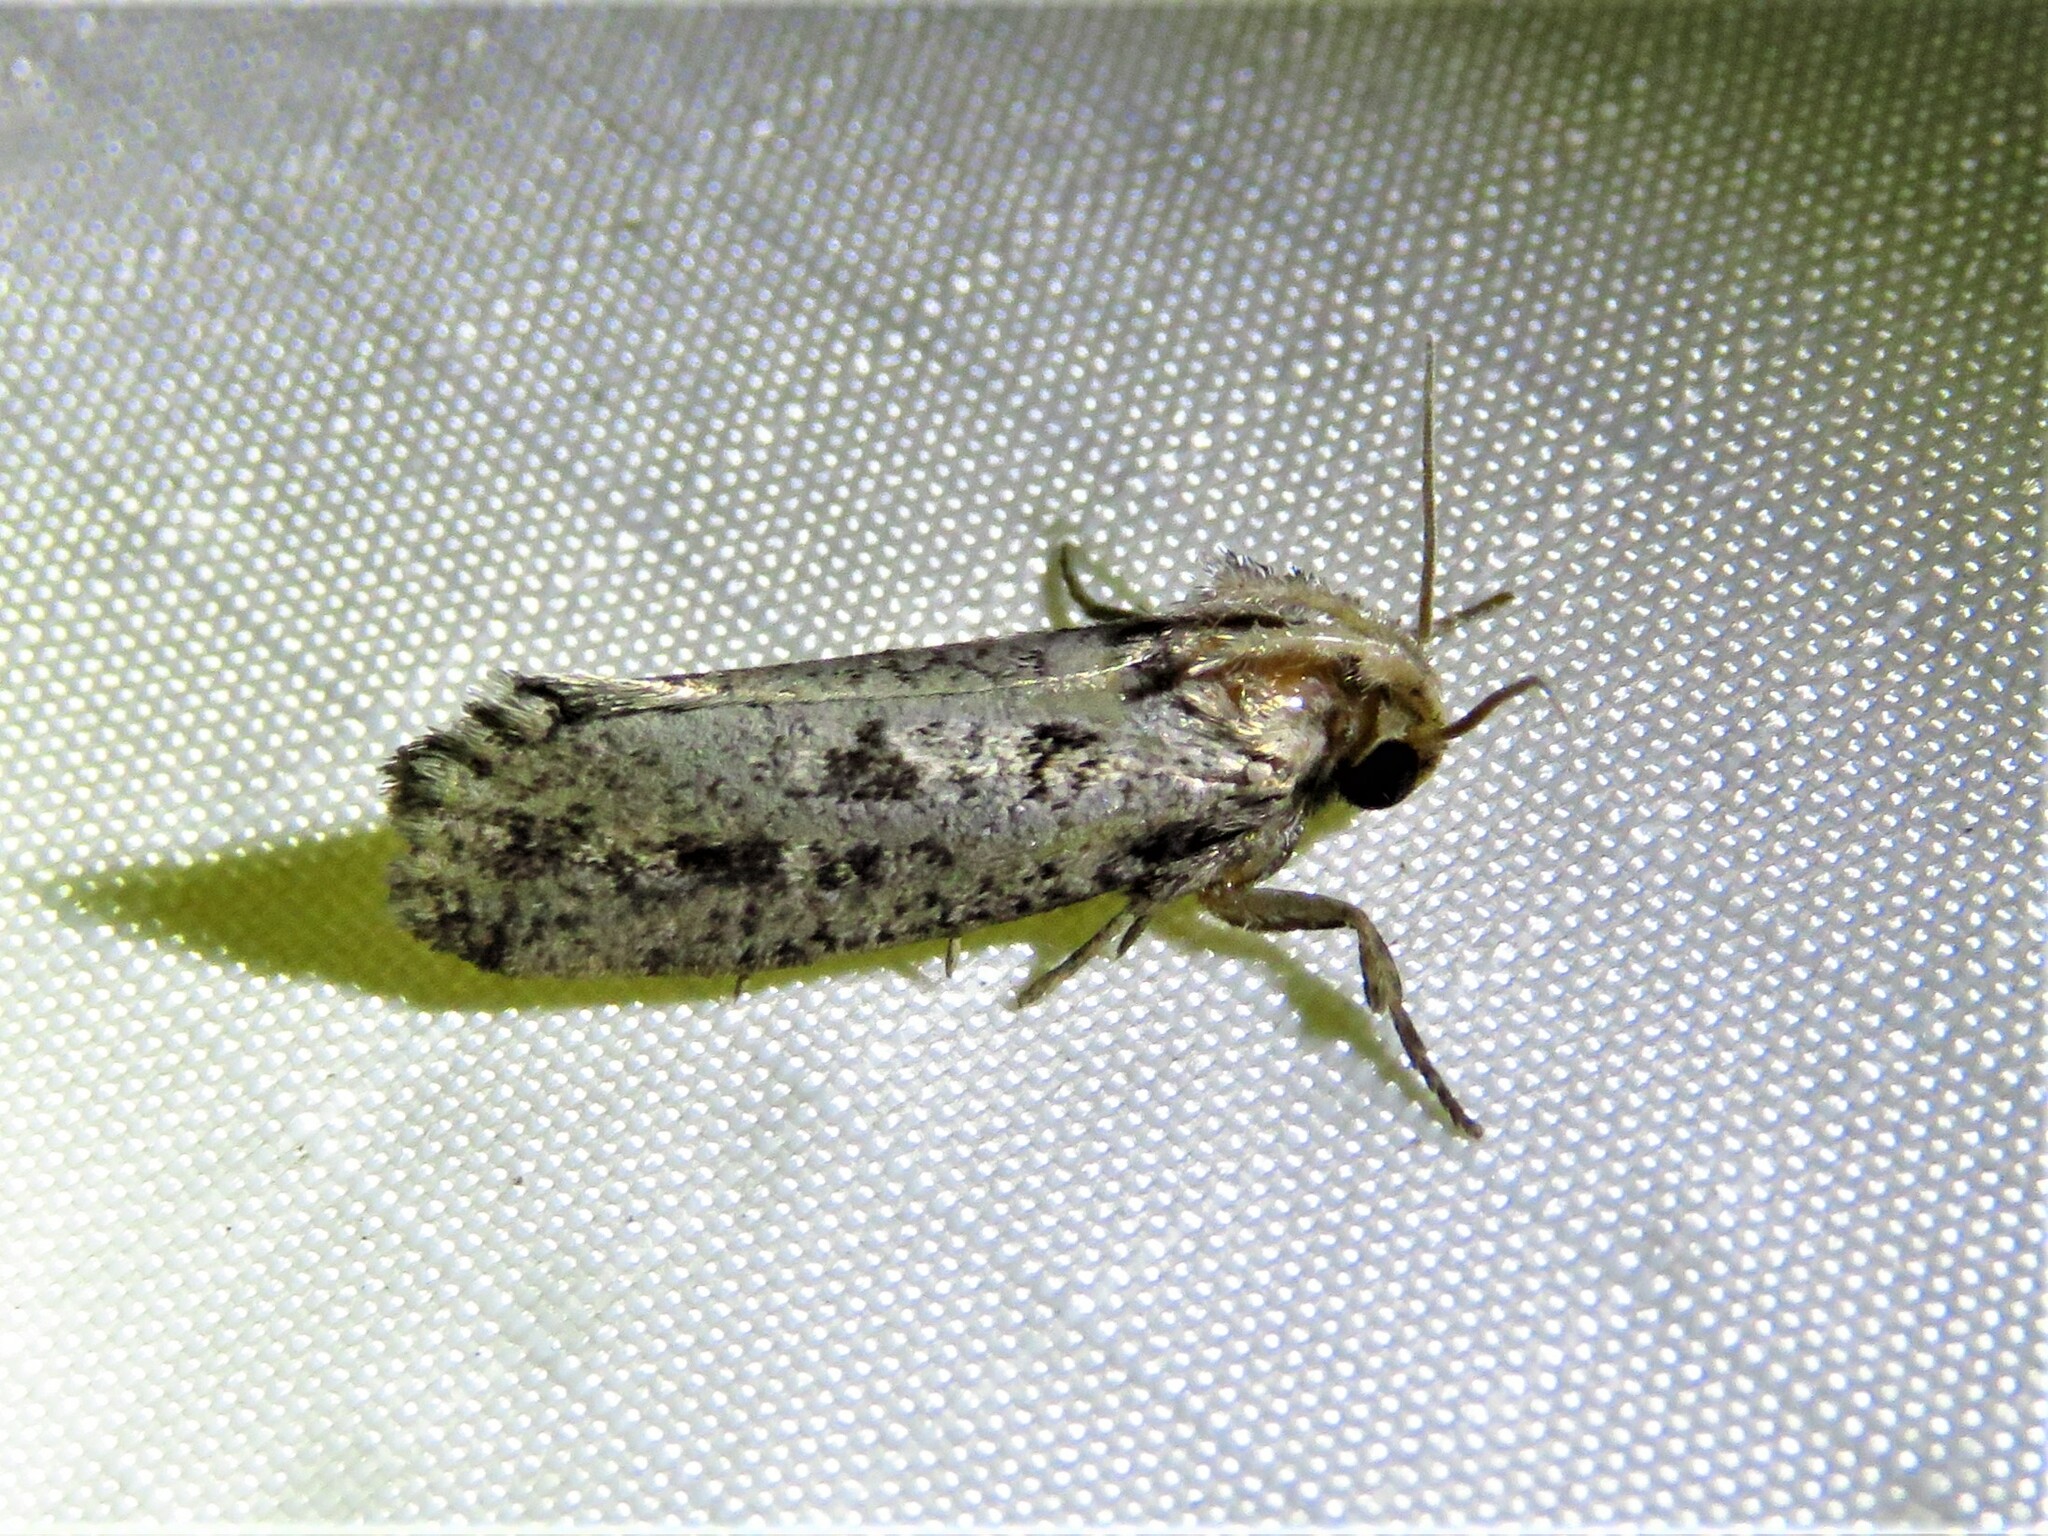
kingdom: Animalia
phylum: Arthropoda
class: Insecta
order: Lepidoptera
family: Tineidae
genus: Acrolophus
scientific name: Acrolophus popeanella
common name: Clemens' grass tubeworm moth
